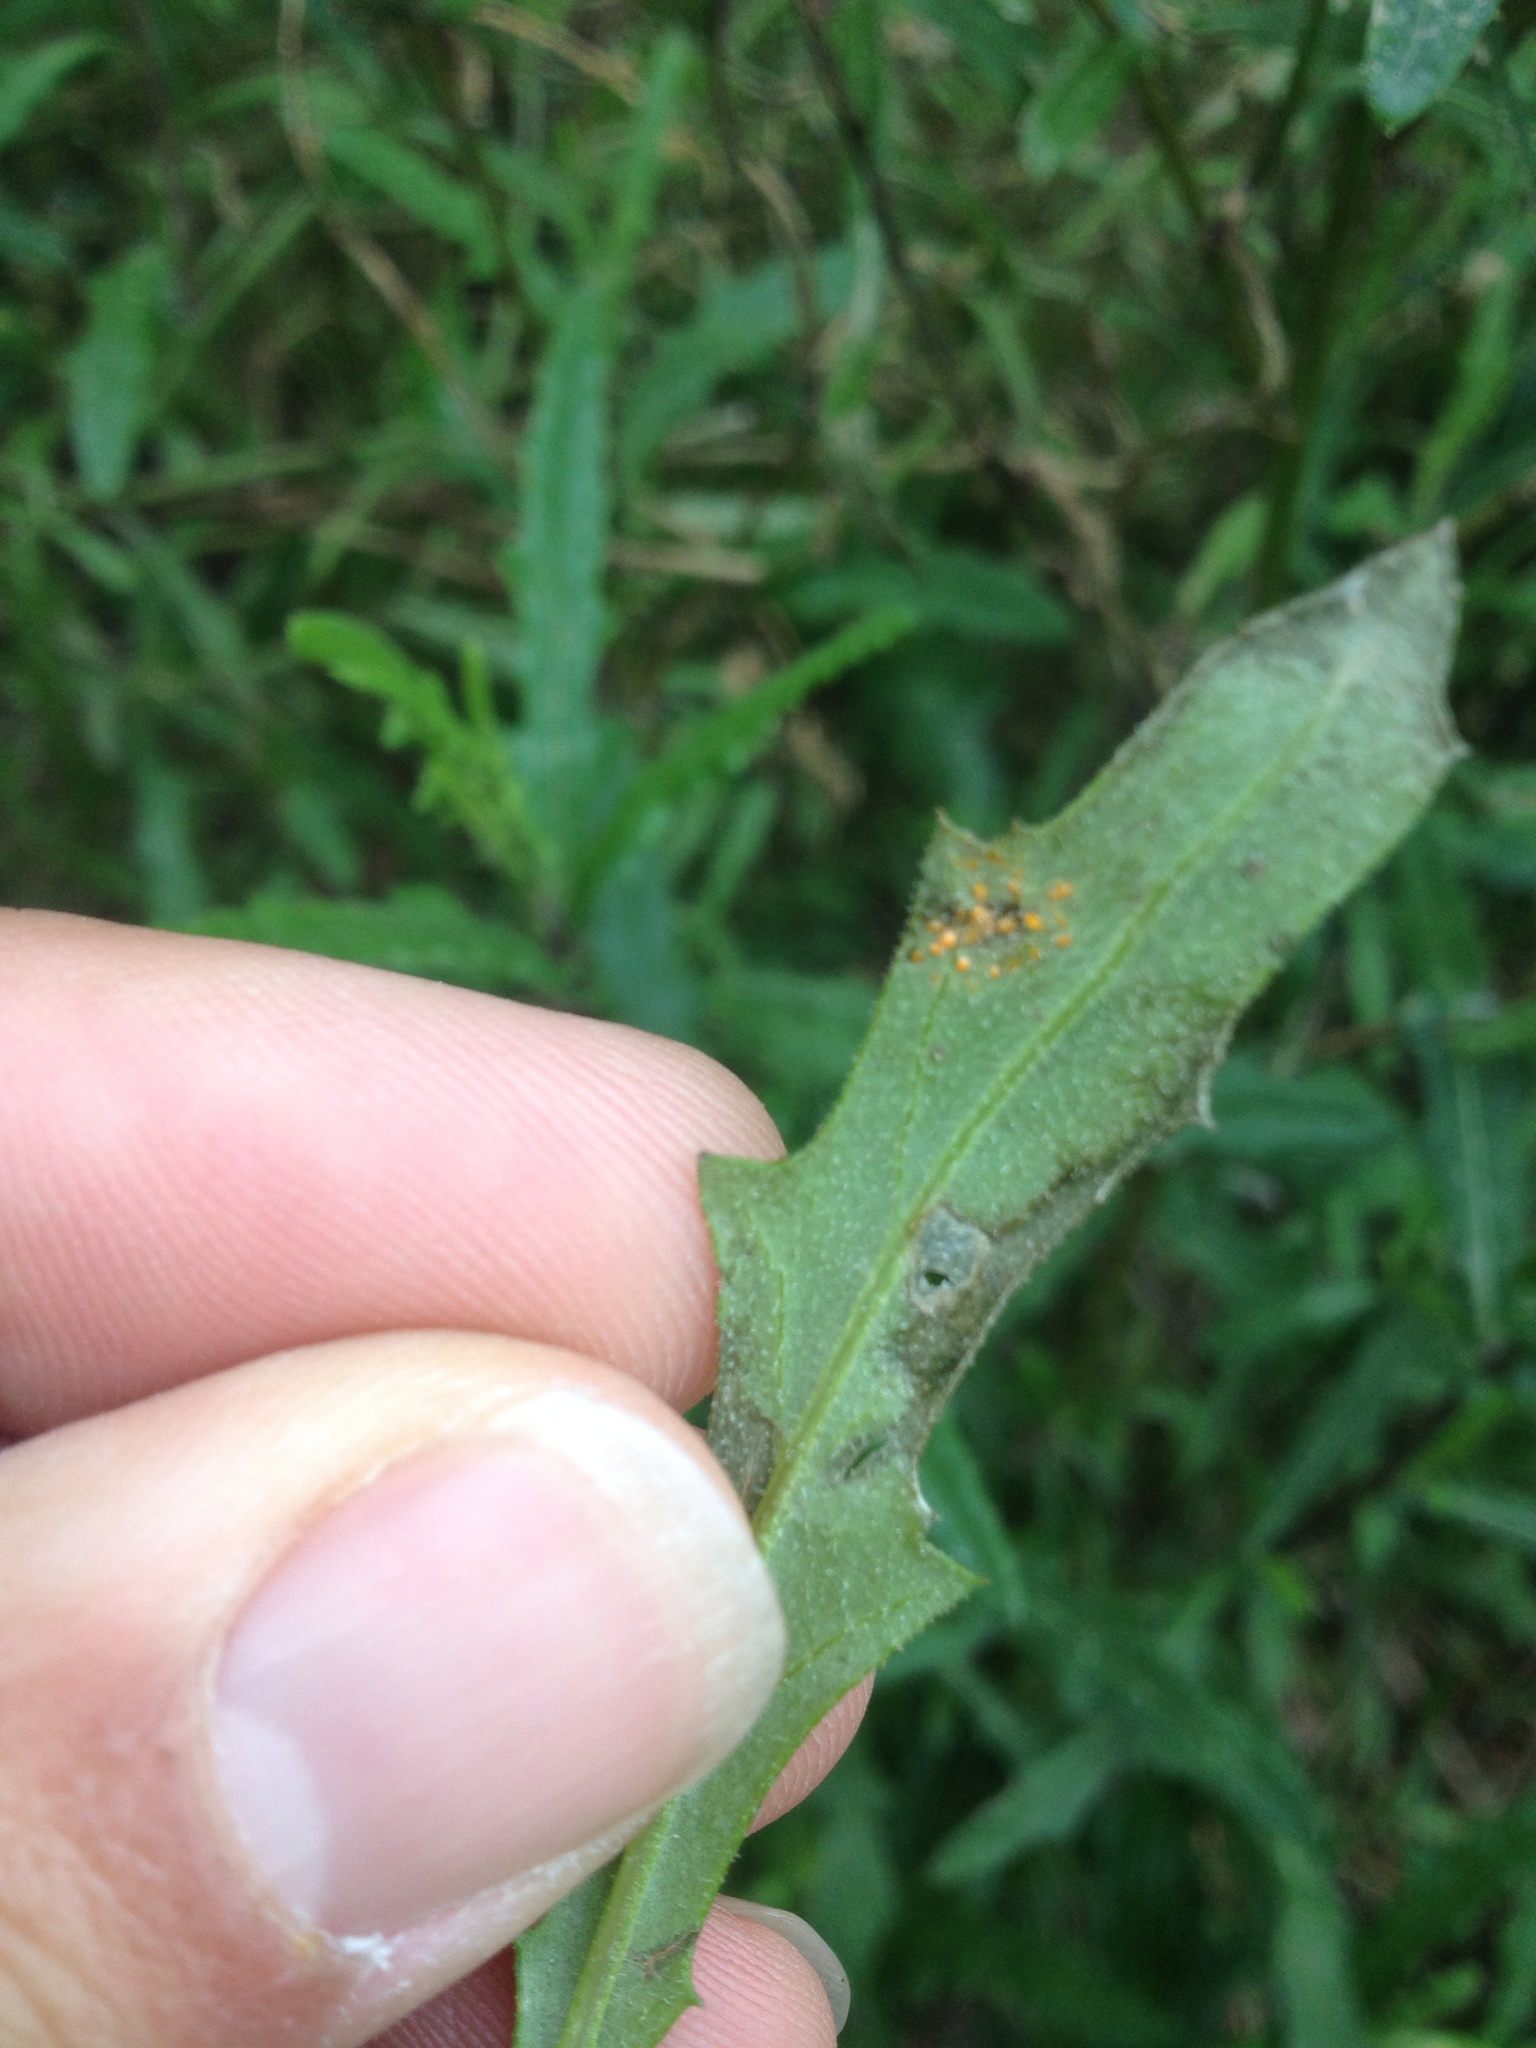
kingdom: Fungi
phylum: Basidiomycota
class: Pucciniomycetes
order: Pucciniales
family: Coleosporiaceae
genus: Coleosporium
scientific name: Coleosporium tussilaginis
